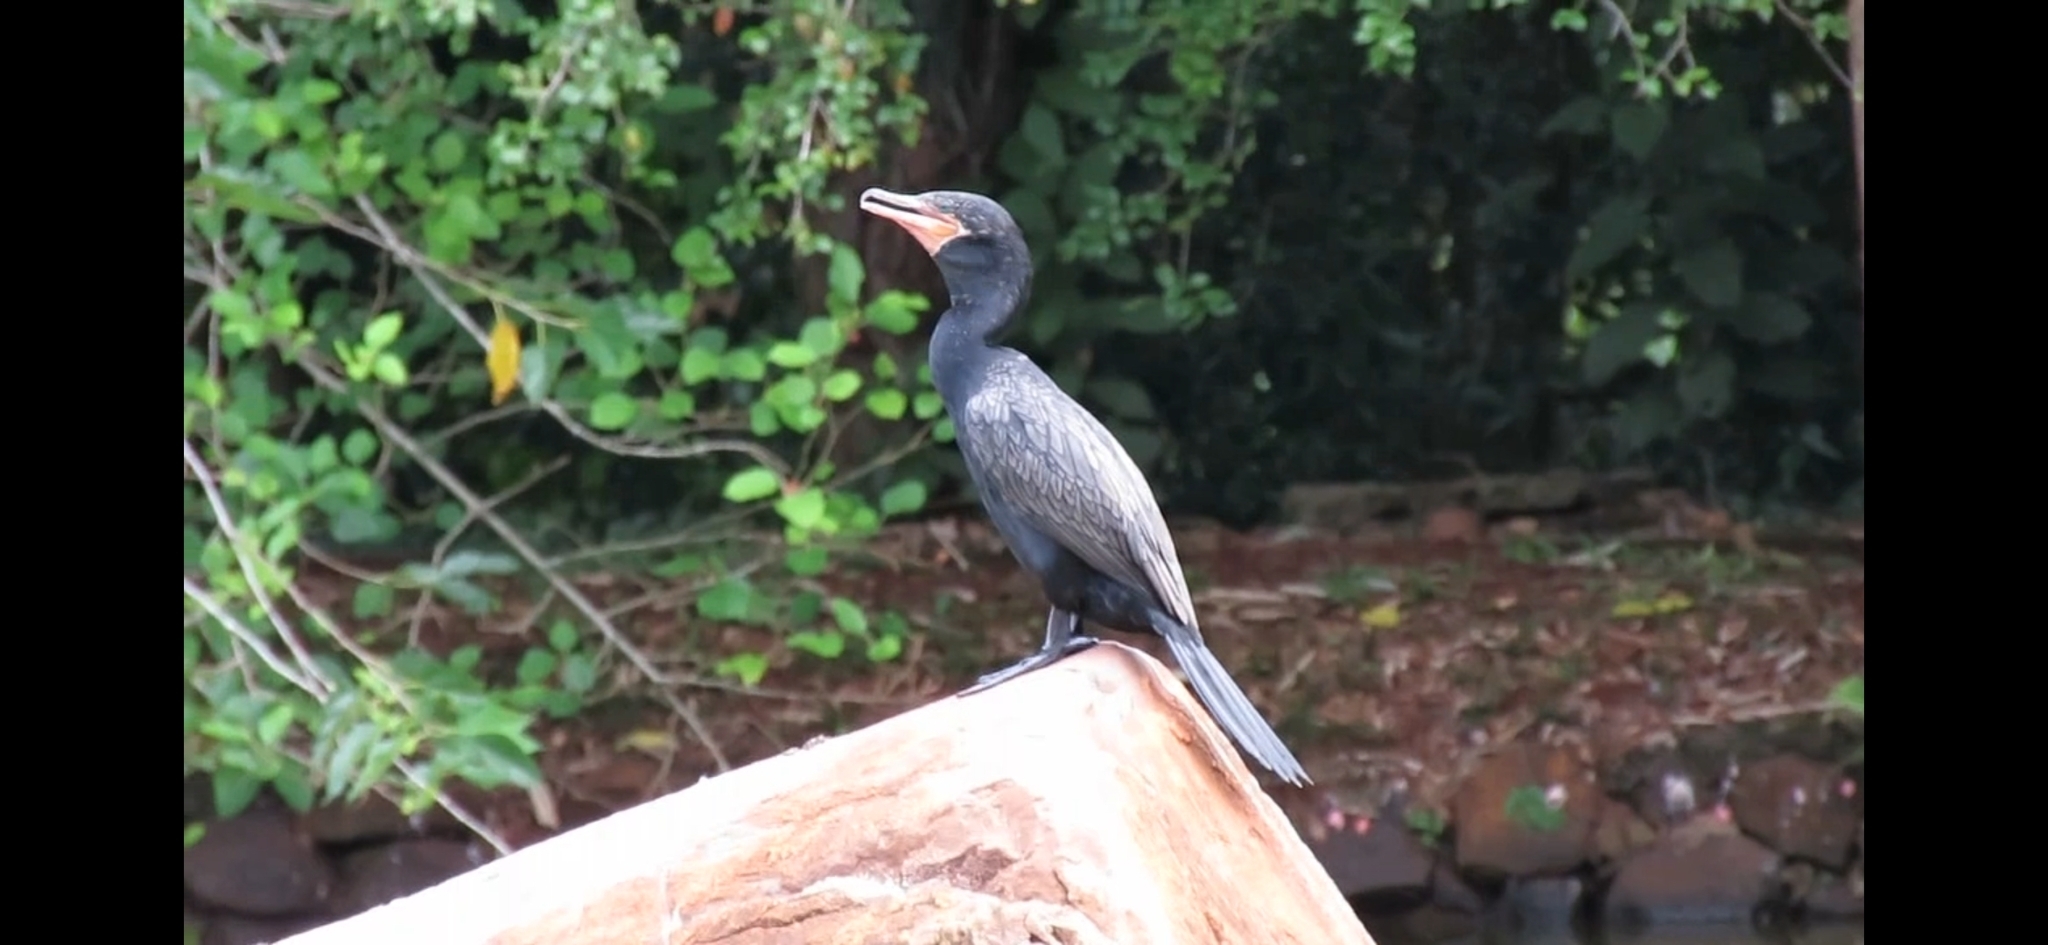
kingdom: Animalia
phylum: Chordata
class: Aves
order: Suliformes
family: Phalacrocoracidae
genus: Phalacrocorax
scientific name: Phalacrocorax brasilianus
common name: Neotropic cormorant
